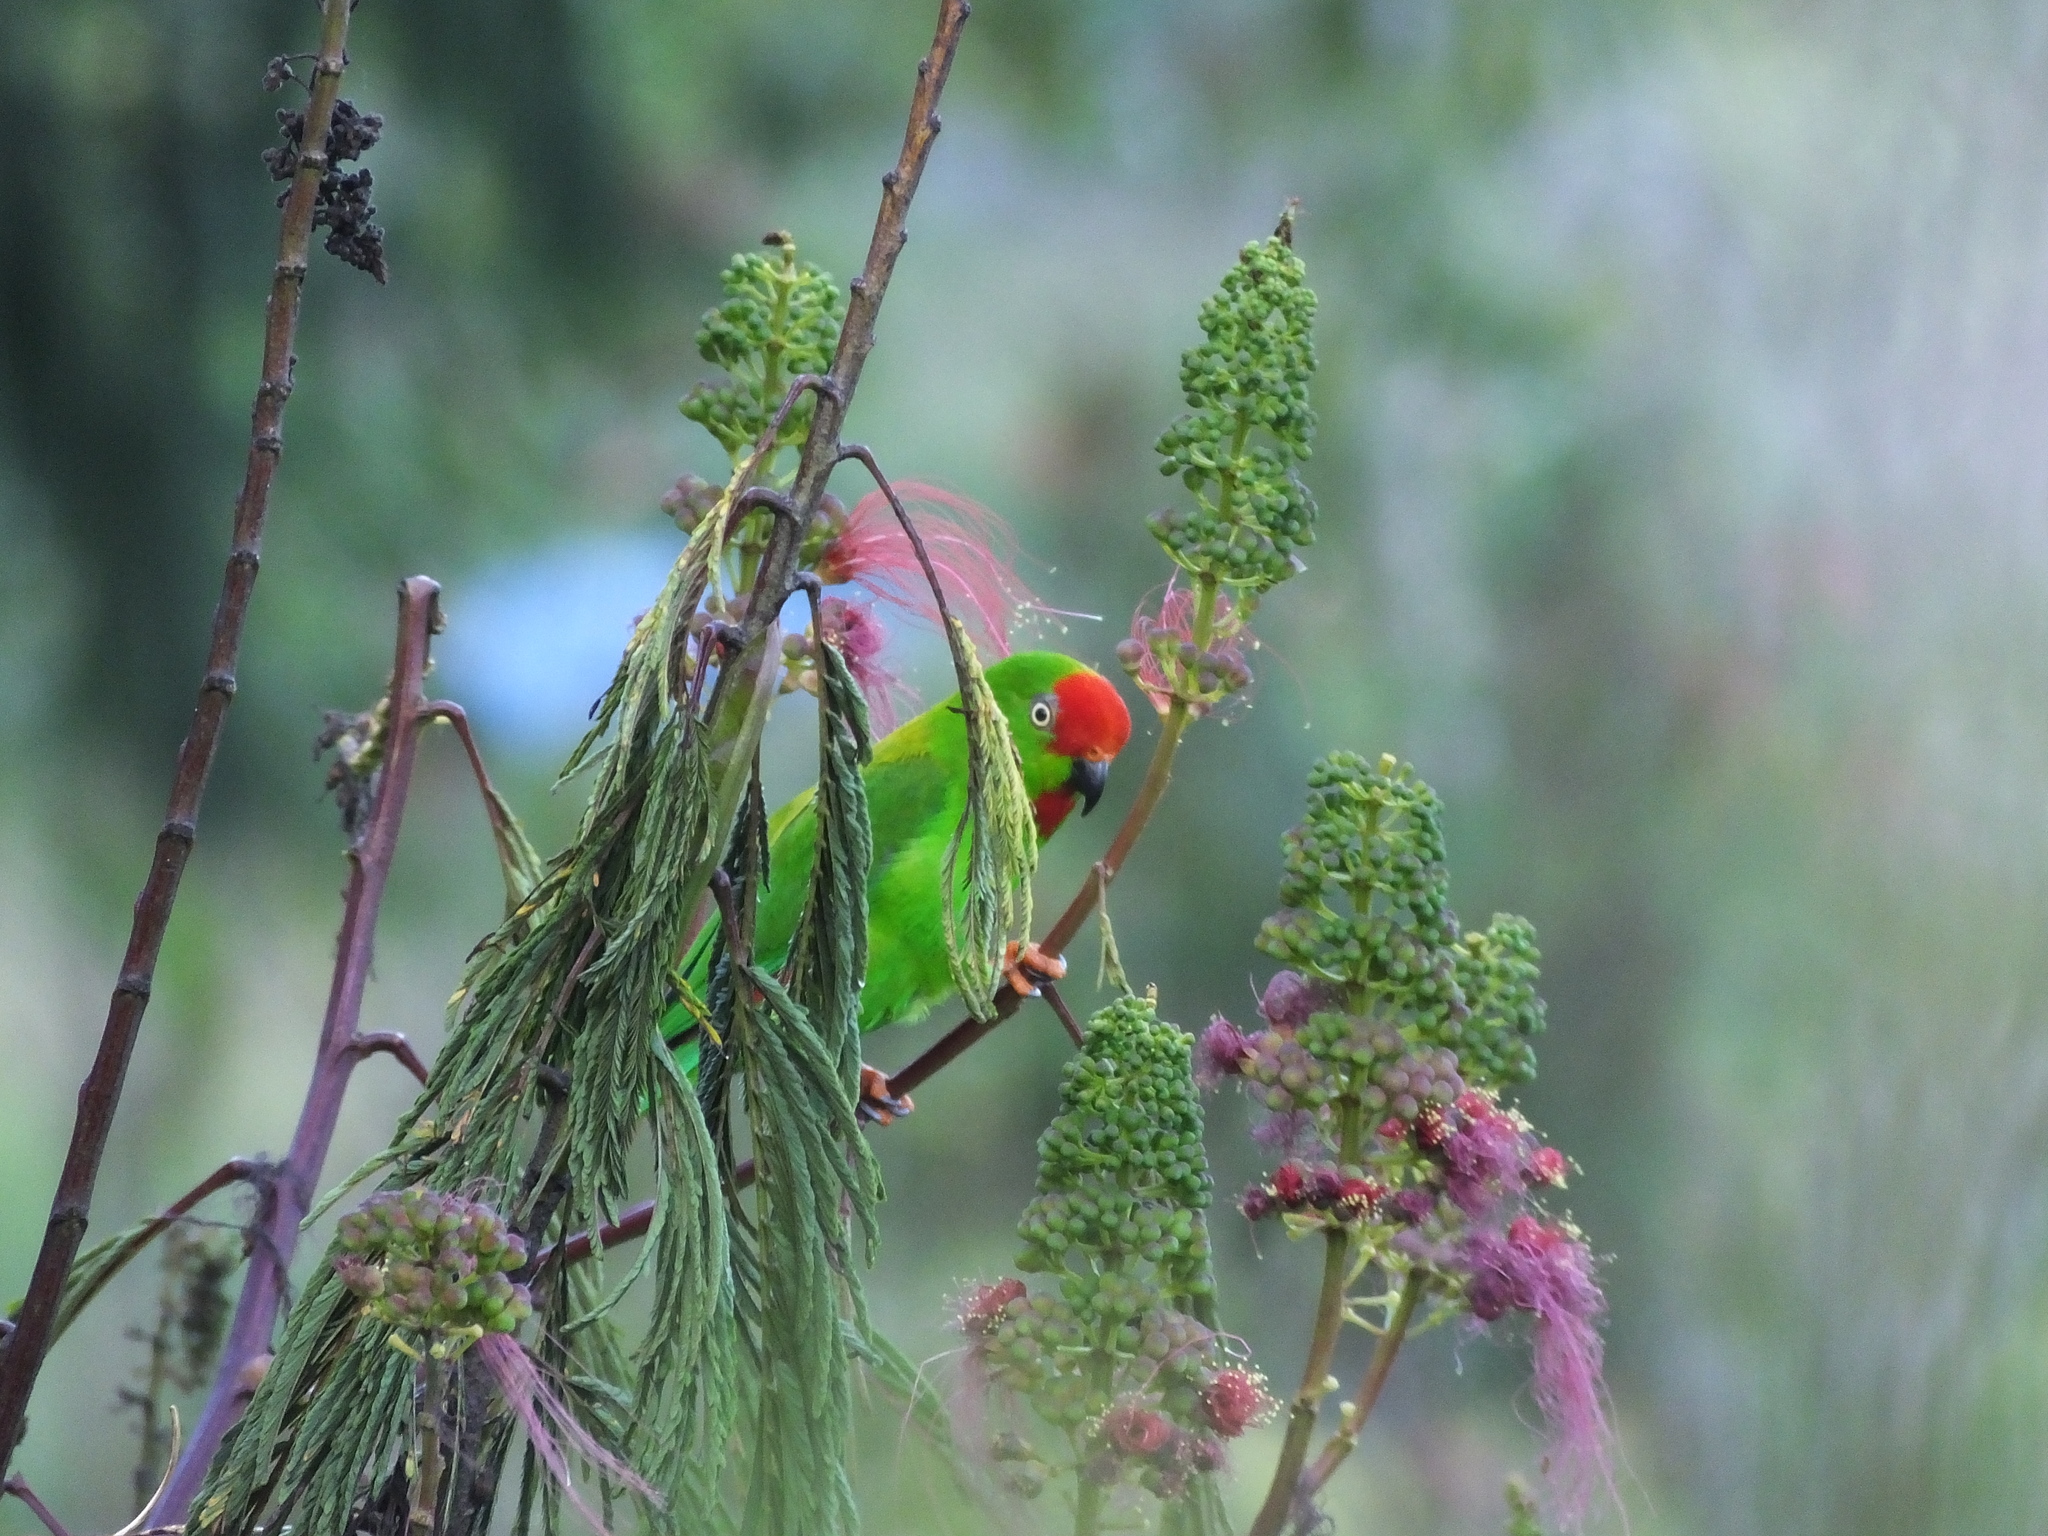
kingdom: Animalia
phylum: Chordata
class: Aves
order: Psittaciformes
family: Psittacidae
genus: Loriculus
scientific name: Loriculus stigmatus
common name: Great hanging parrot
